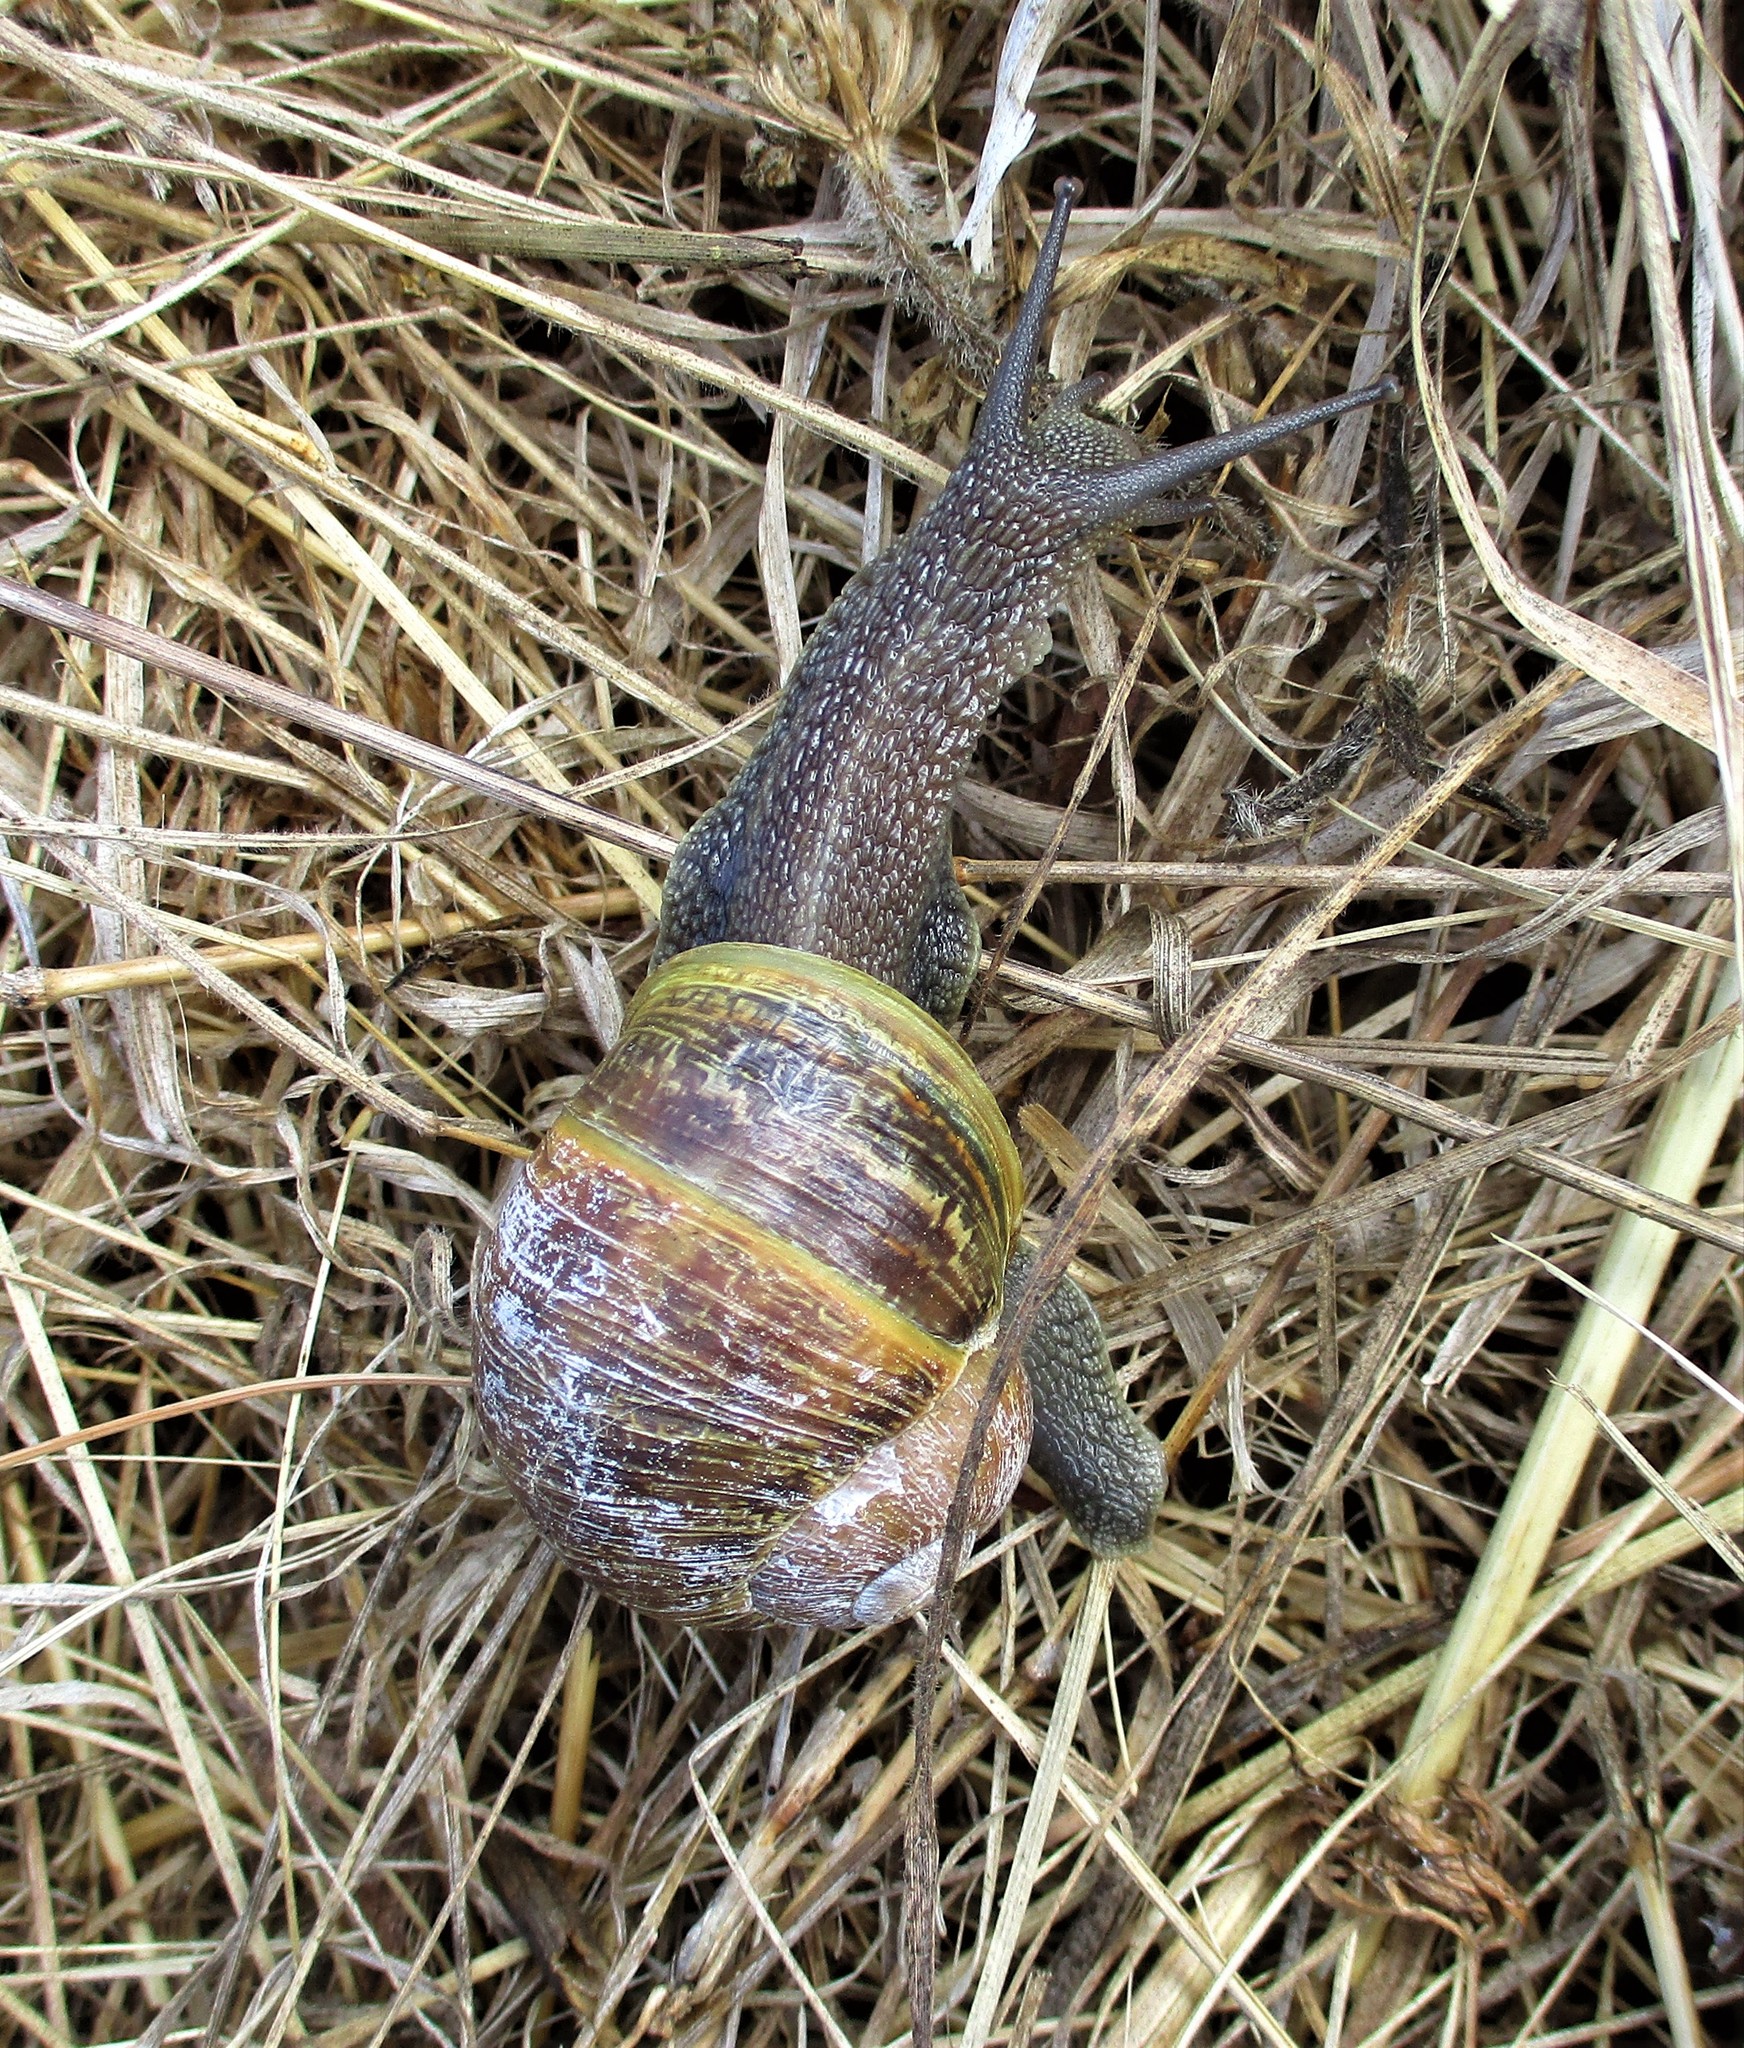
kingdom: Animalia
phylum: Mollusca
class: Gastropoda
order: Stylommatophora
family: Helicidae
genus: Cornu
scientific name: Cornu aspersum
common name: Brown garden snail
